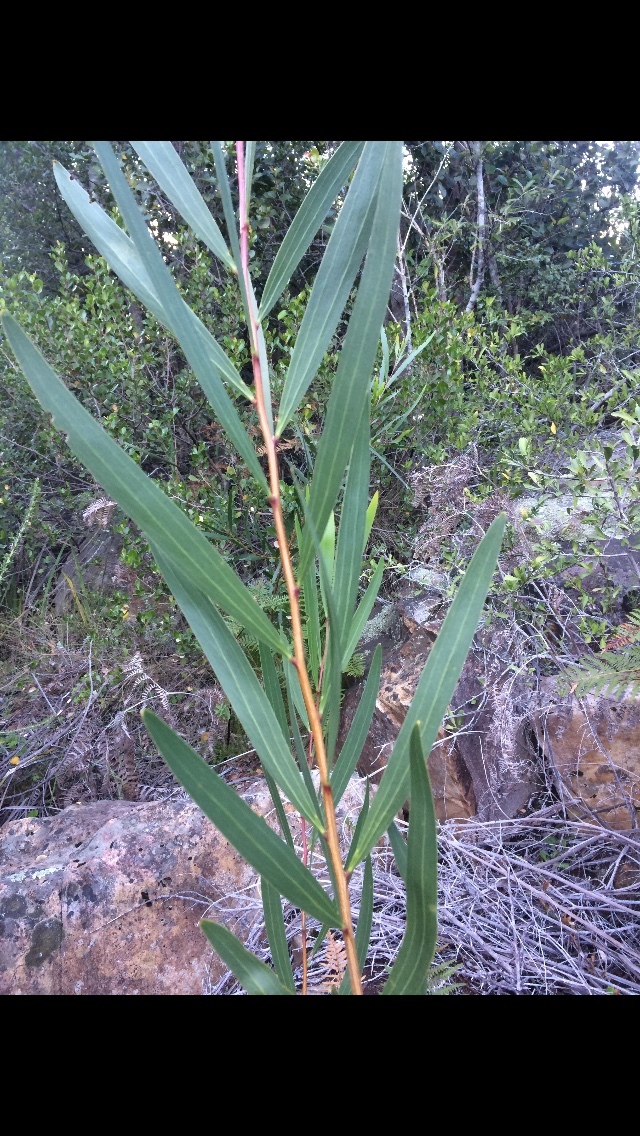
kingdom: Plantae
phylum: Tracheophyta
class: Magnoliopsida
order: Fabales
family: Fabaceae
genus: Acacia
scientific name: Acacia longifolia
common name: Sydney golden wattle
